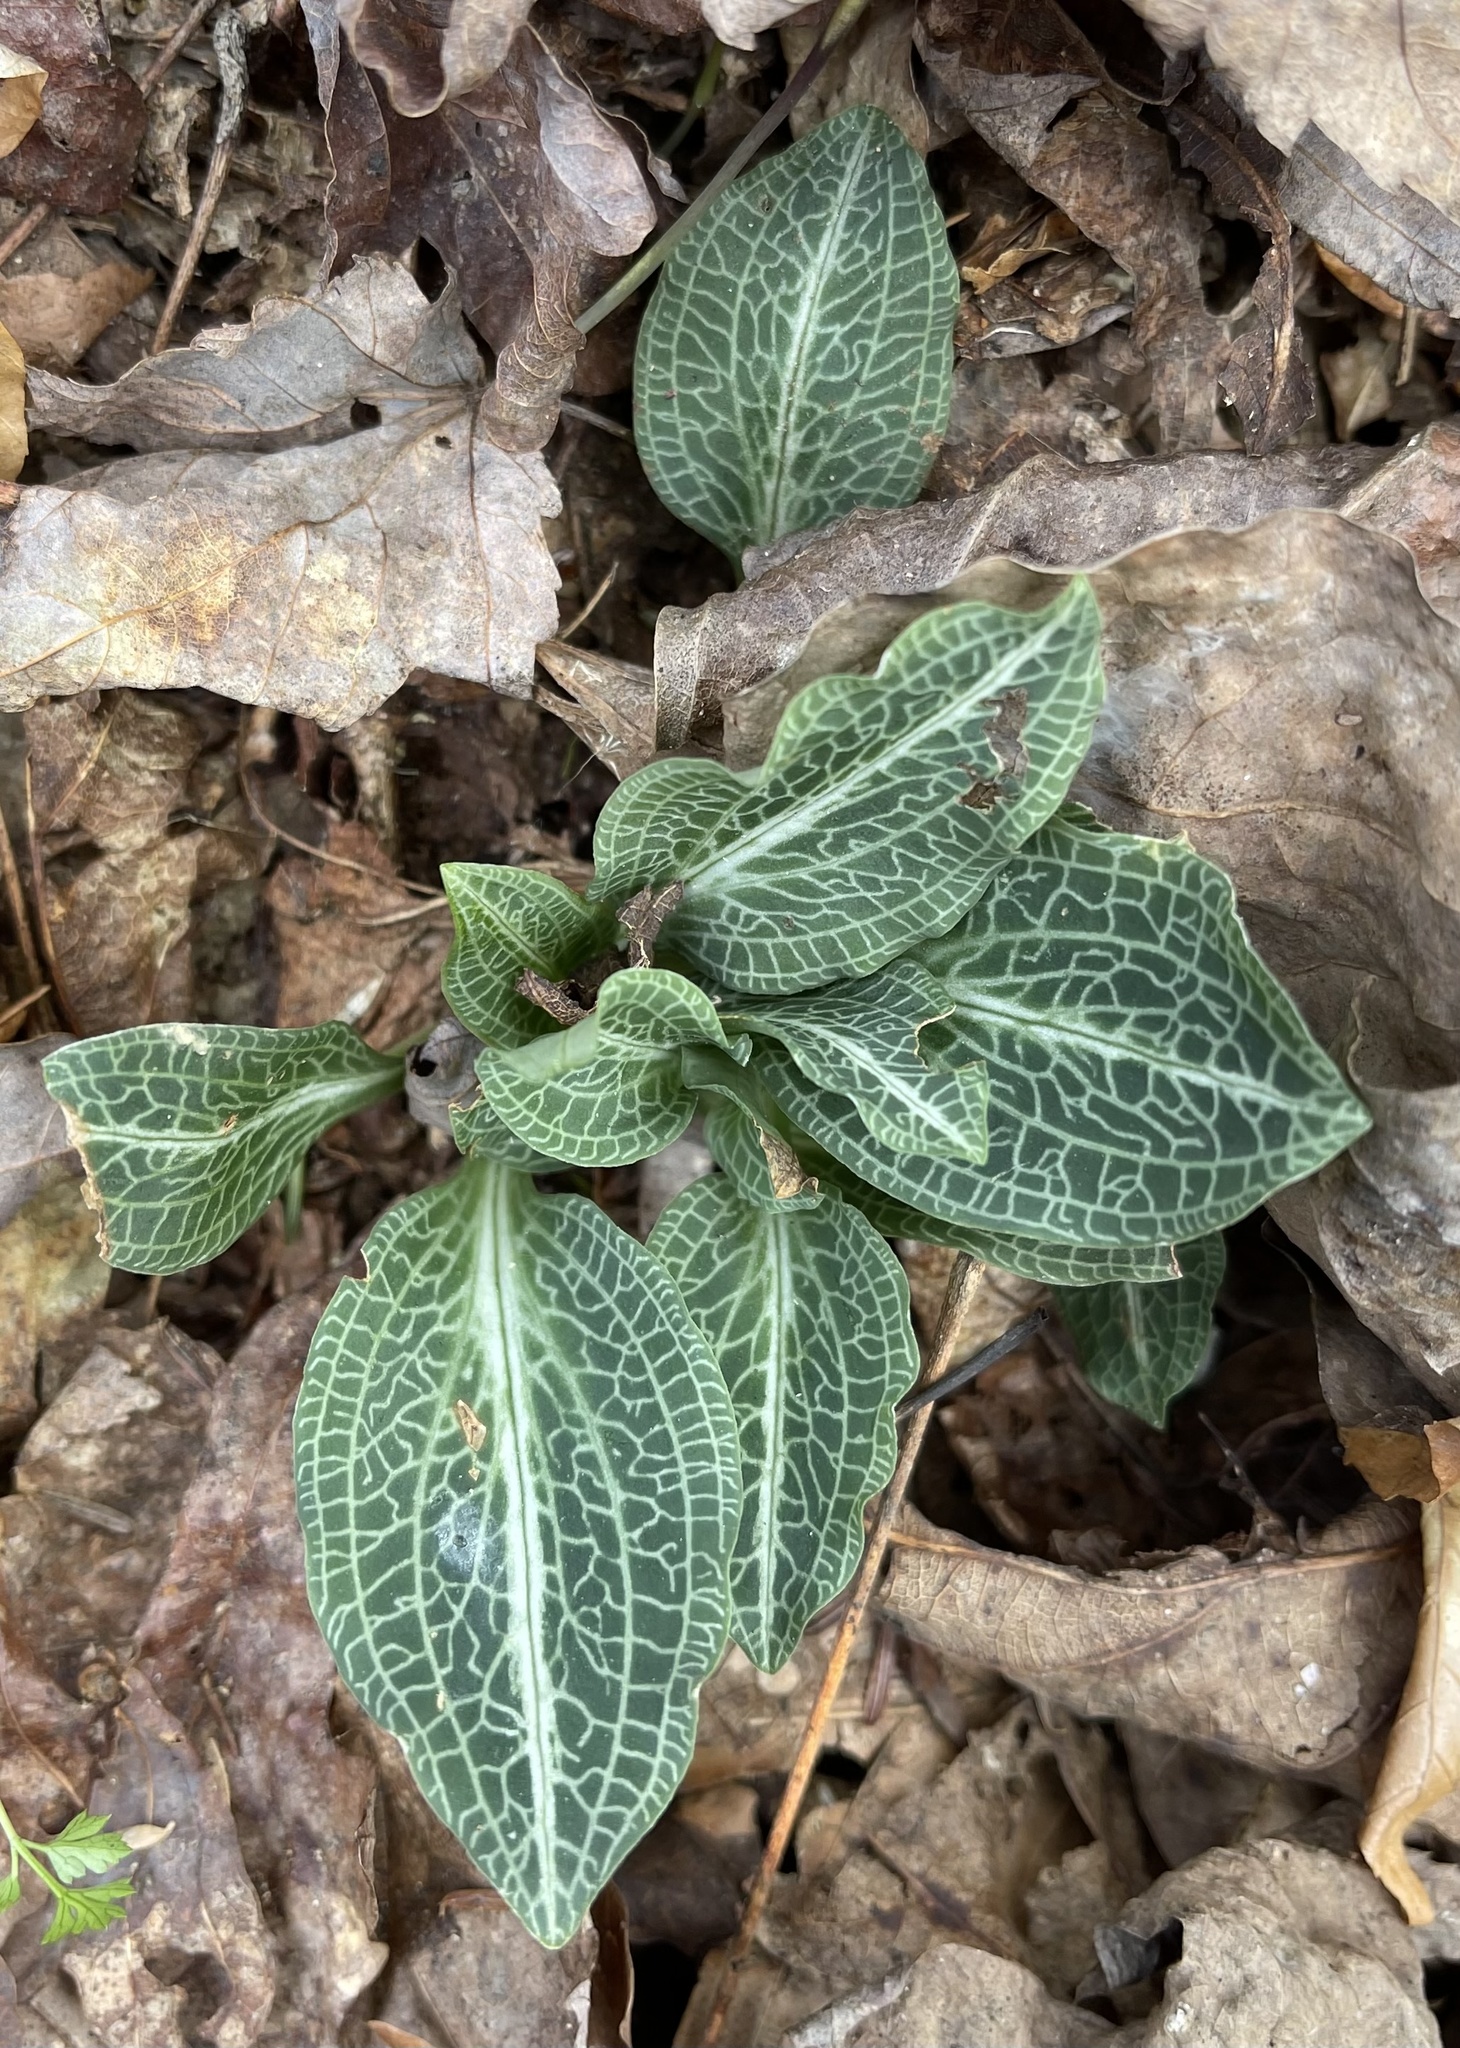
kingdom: Plantae
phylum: Tracheophyta
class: Liliopsida
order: Asparagales
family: Orchidaceae
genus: Goodyera
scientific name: Goodyera pubescens
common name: Downy rattlesnake-plantain
